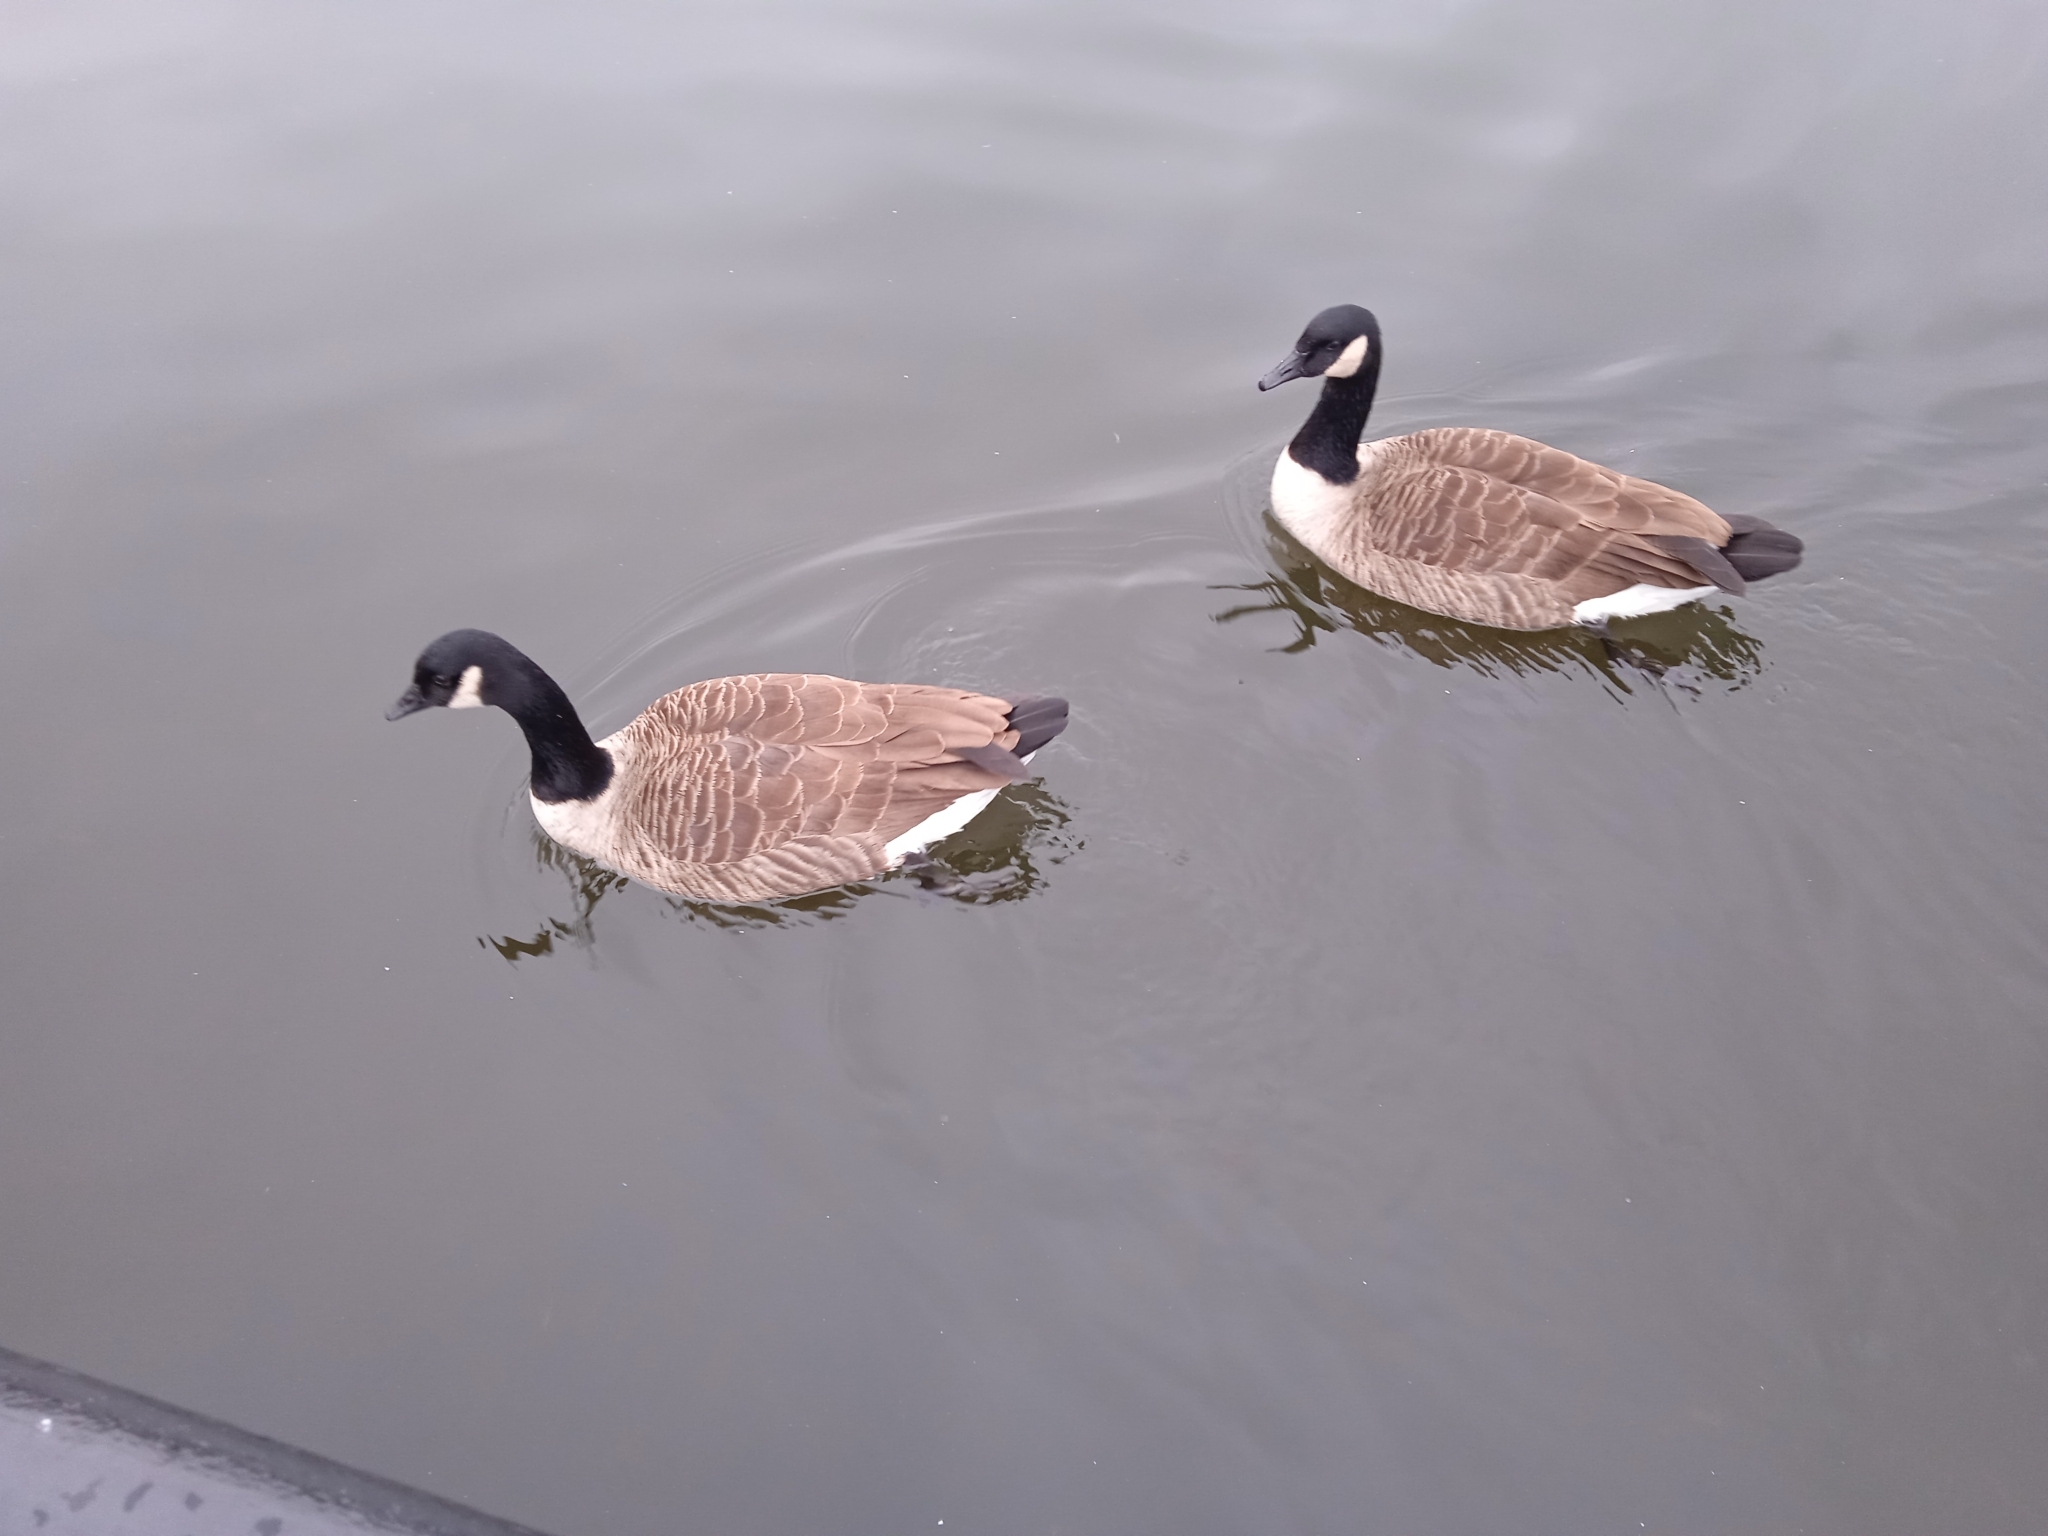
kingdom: Animalia
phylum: Chordata
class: Aves
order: Anseriformes
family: Anatidae
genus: Branta
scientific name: Branta canadensis
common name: Canada goose
